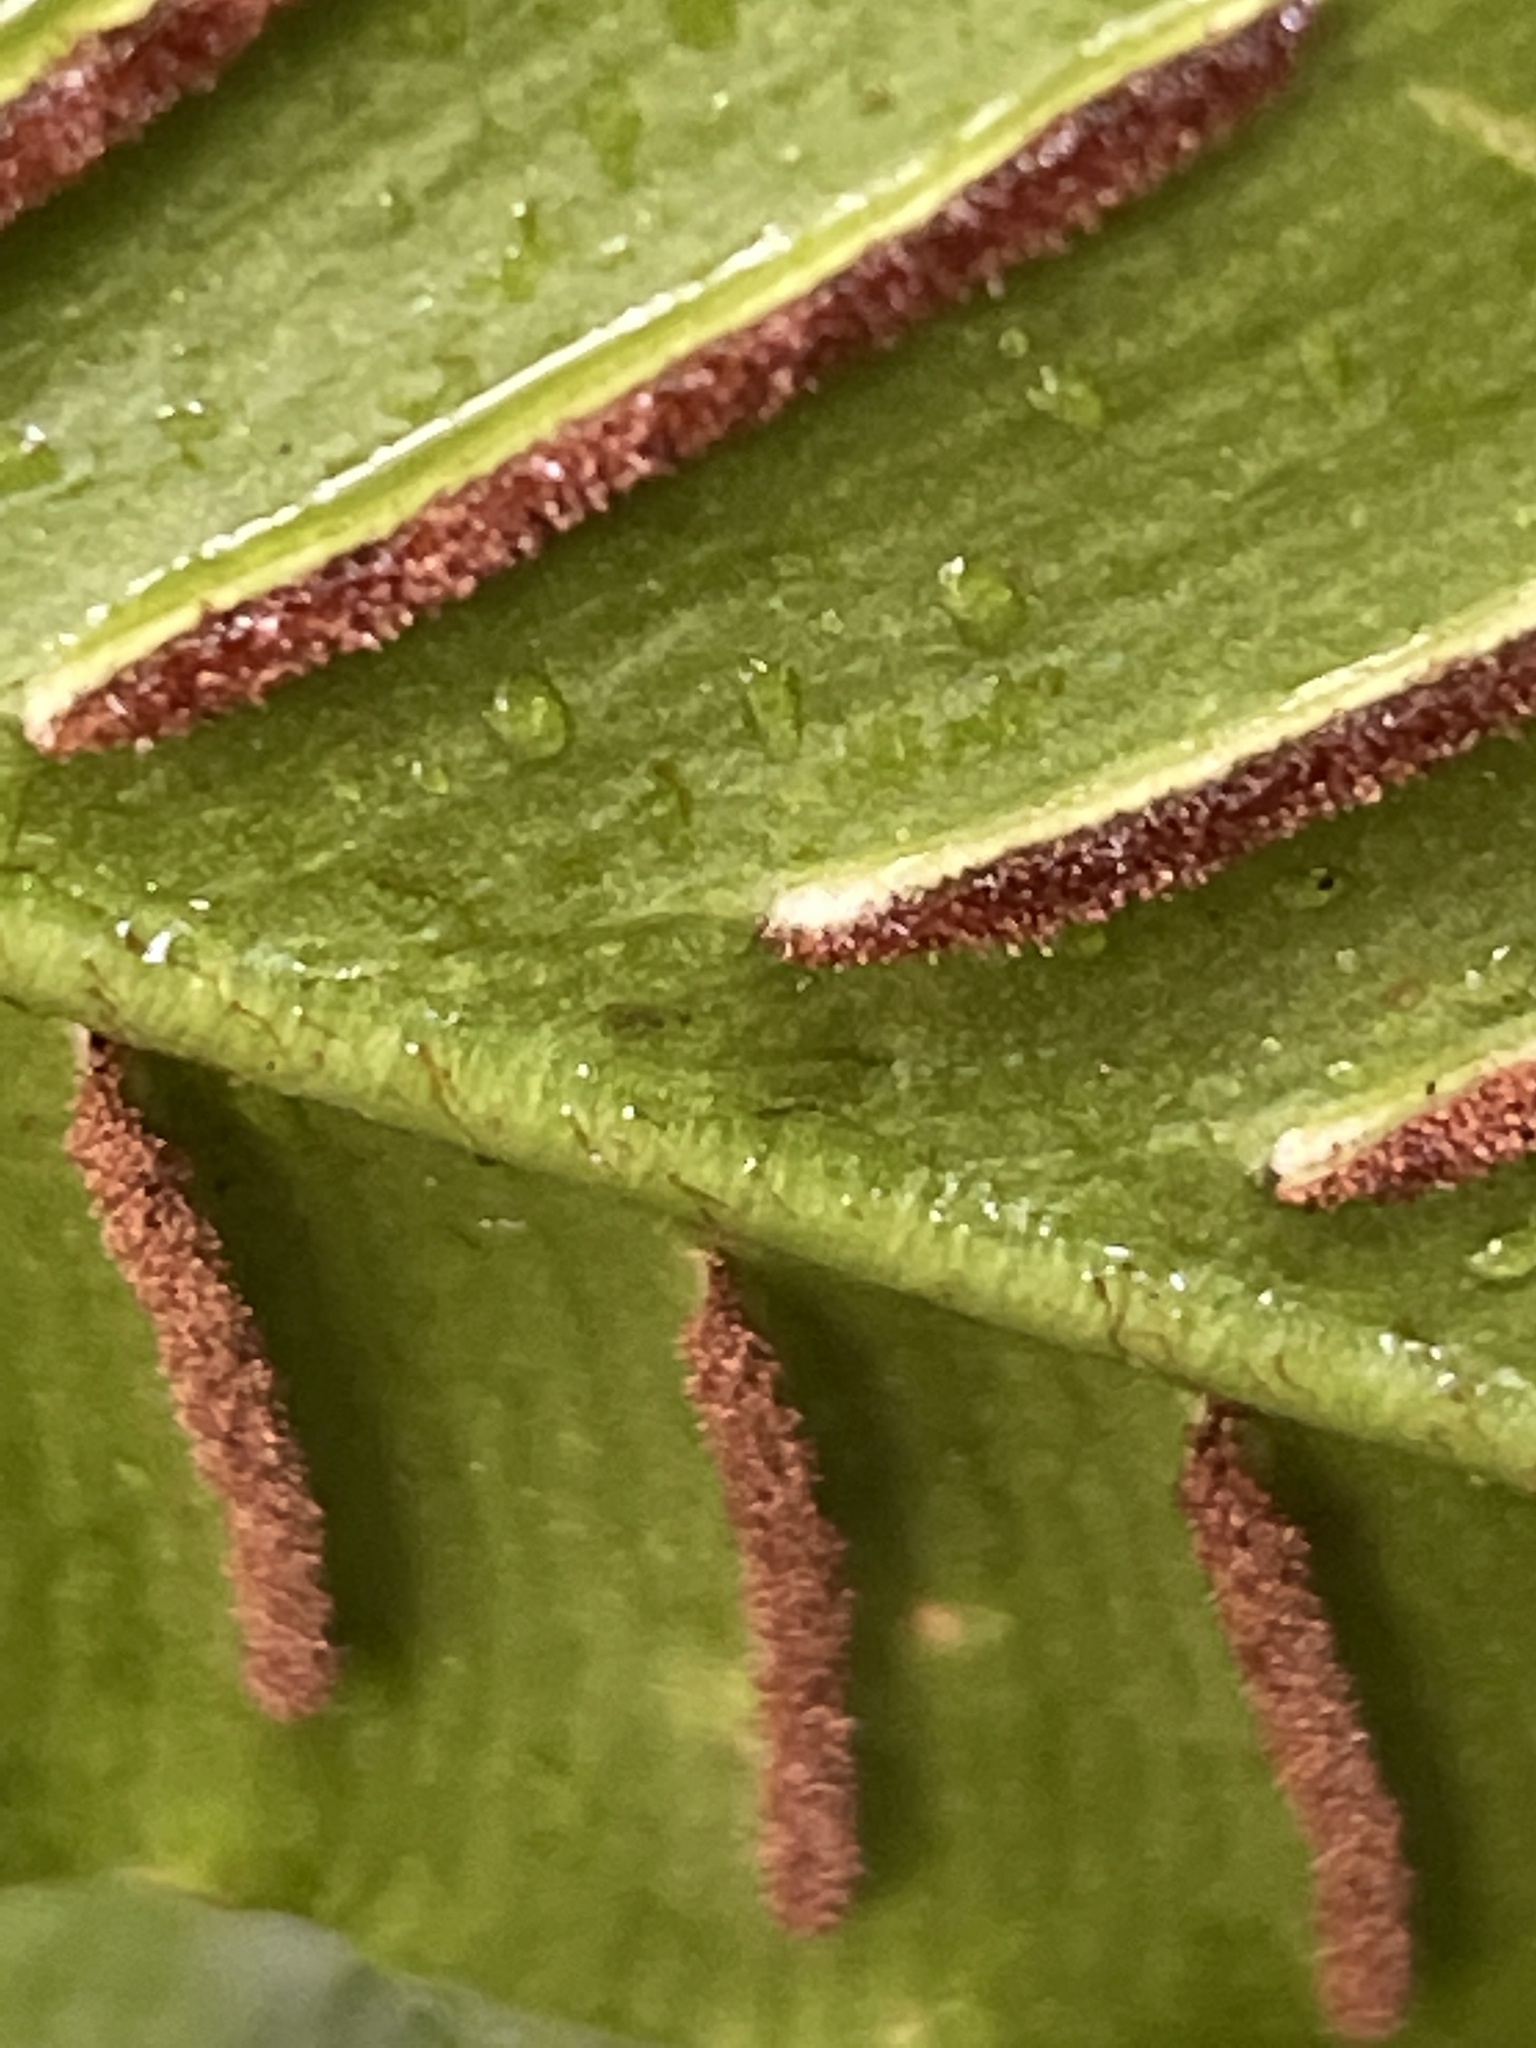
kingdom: Plantae
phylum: Tracheophyta
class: Polypodiopsida
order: Polypodiales
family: Aspleniaceae
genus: Asplenium
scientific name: Asplenium scolopendrium
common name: Hart's-tongue fern
